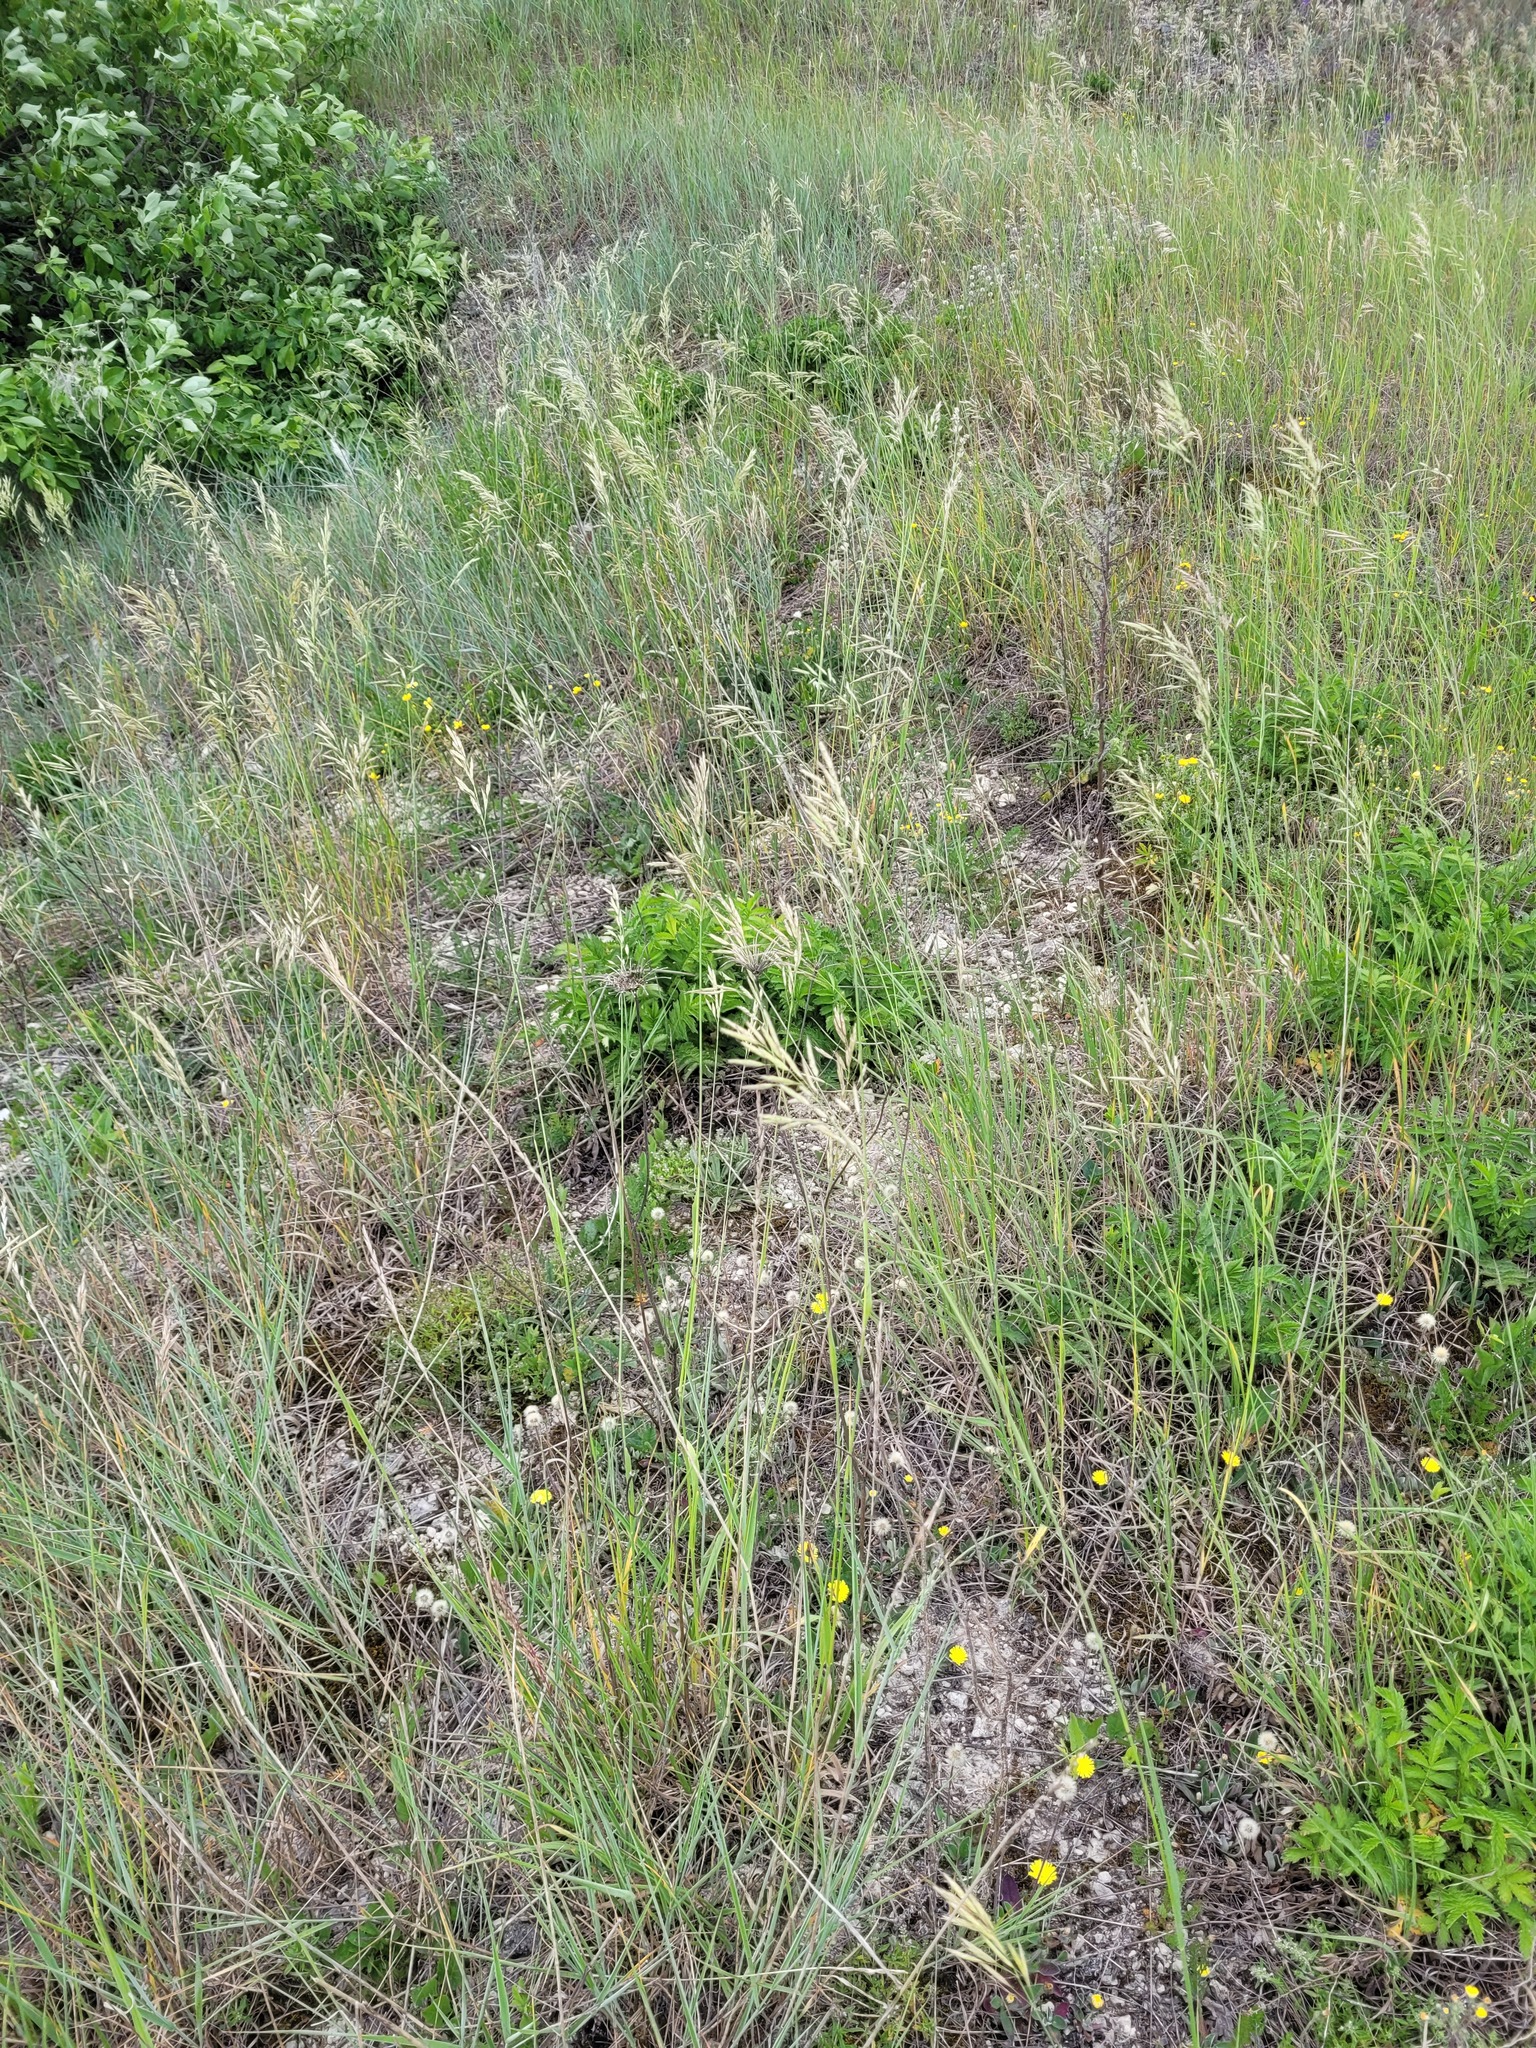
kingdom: Plantae
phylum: Tracheophyta
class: Liliopsida
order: Poales
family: Poaceae
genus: Bromus
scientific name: Bromus riparius
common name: Meadow brome
